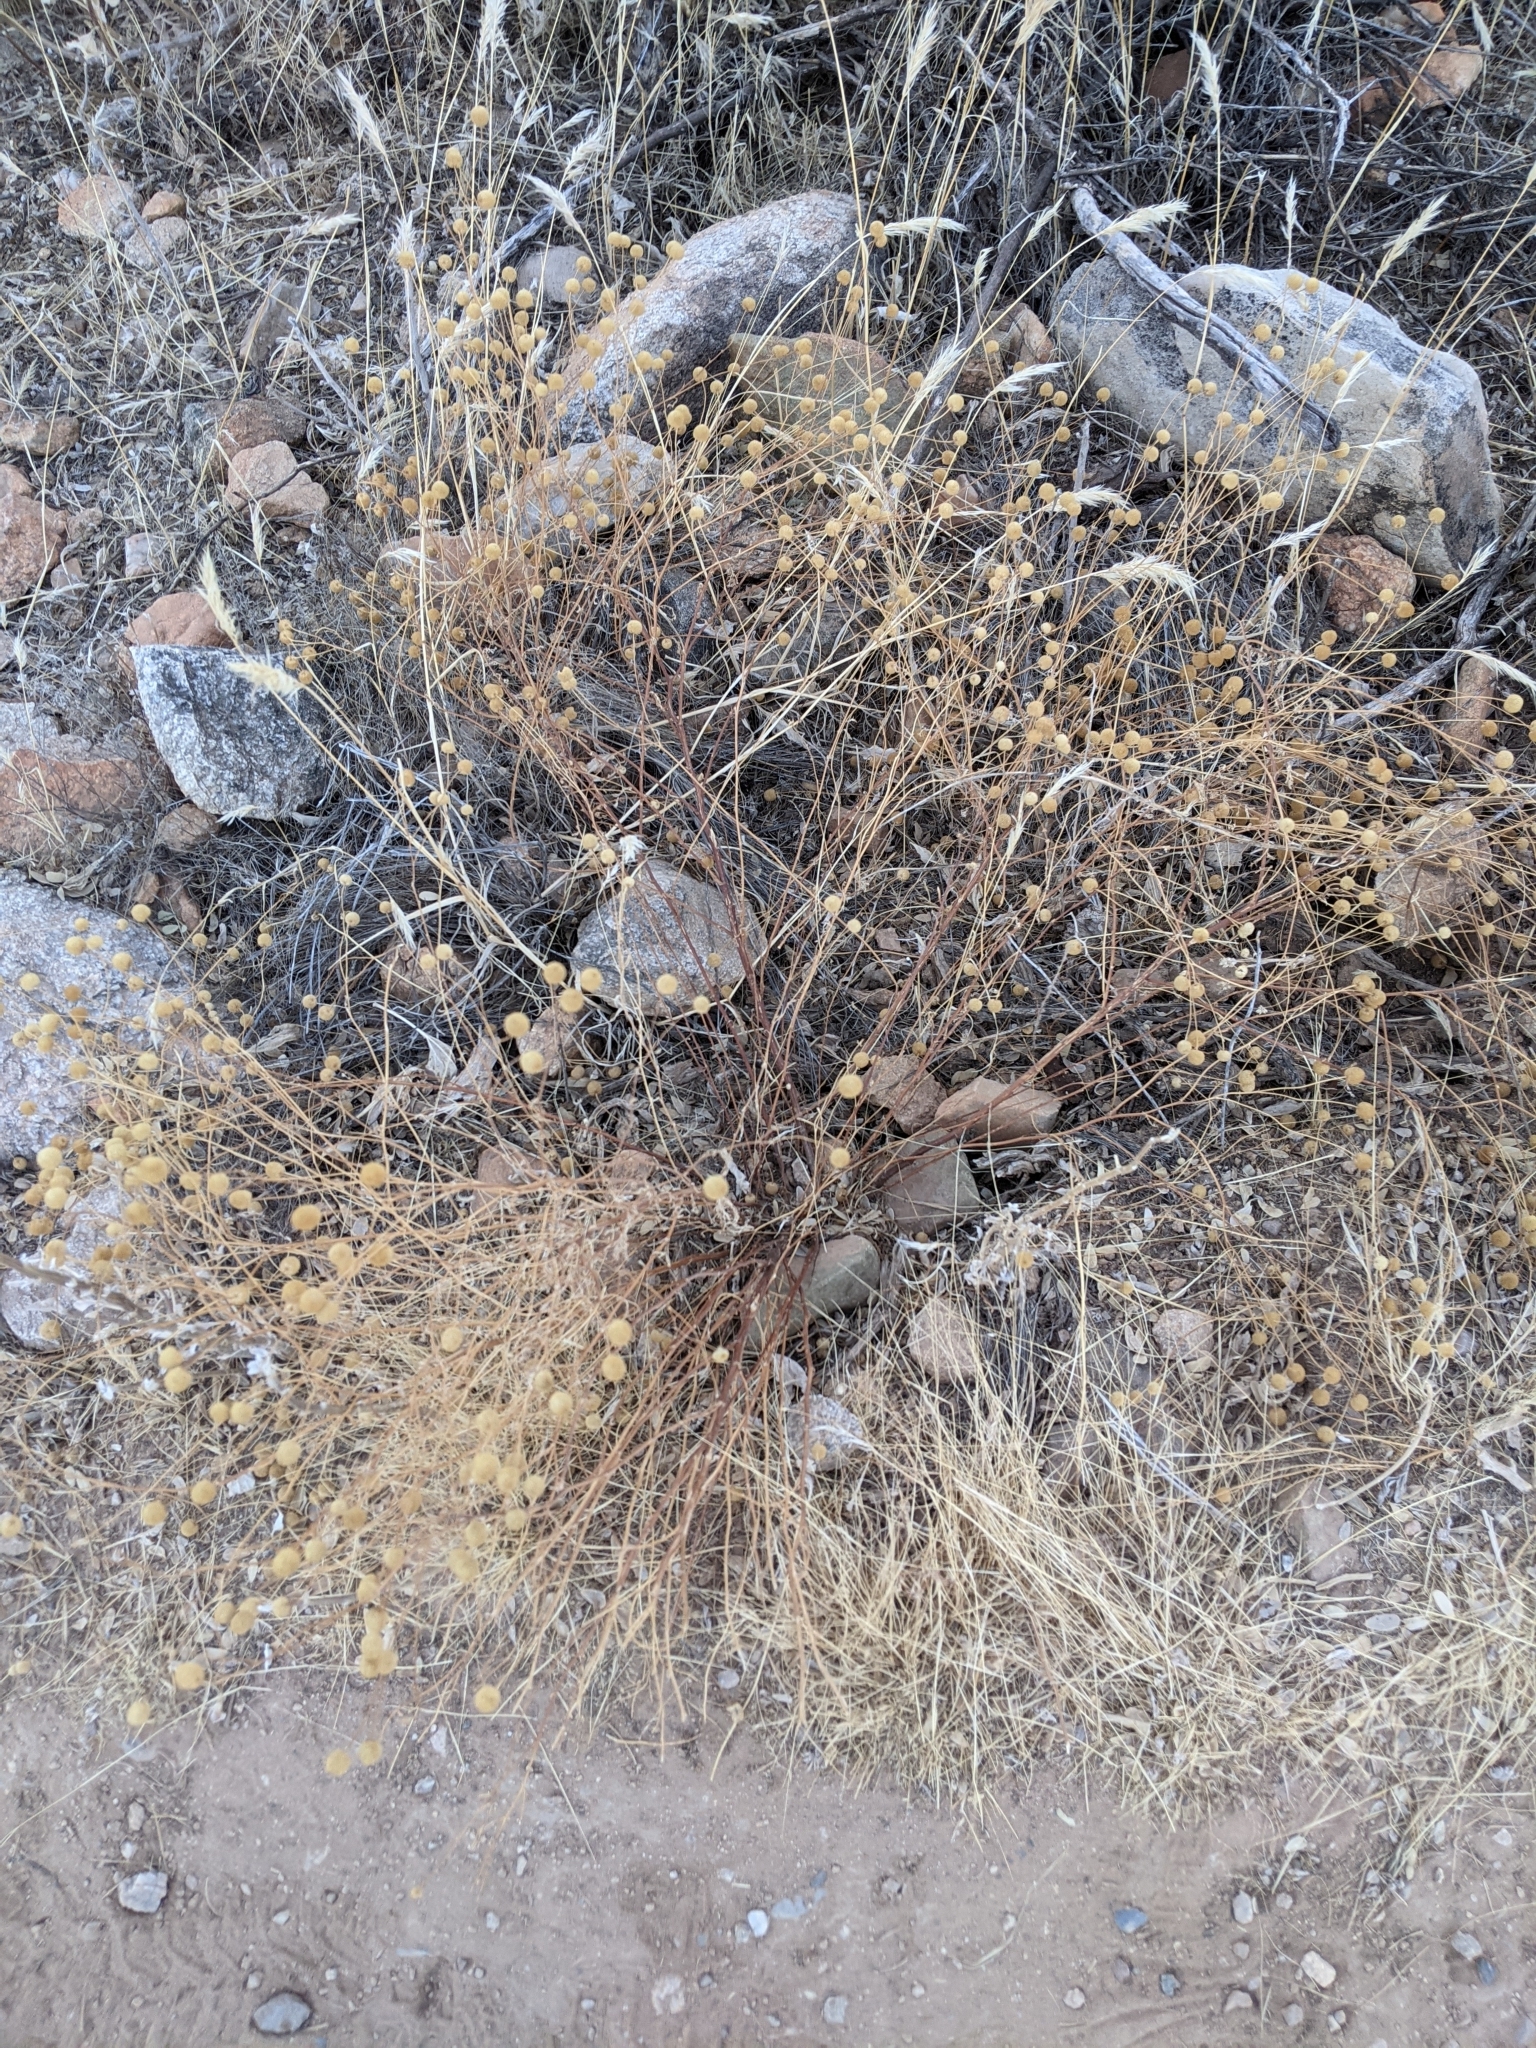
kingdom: Plantae
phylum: Tracheophyta
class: Magnoliopsida
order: Asterales
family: Asteraceae
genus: Oncosiphon
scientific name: Oncosiphon pilulifer
